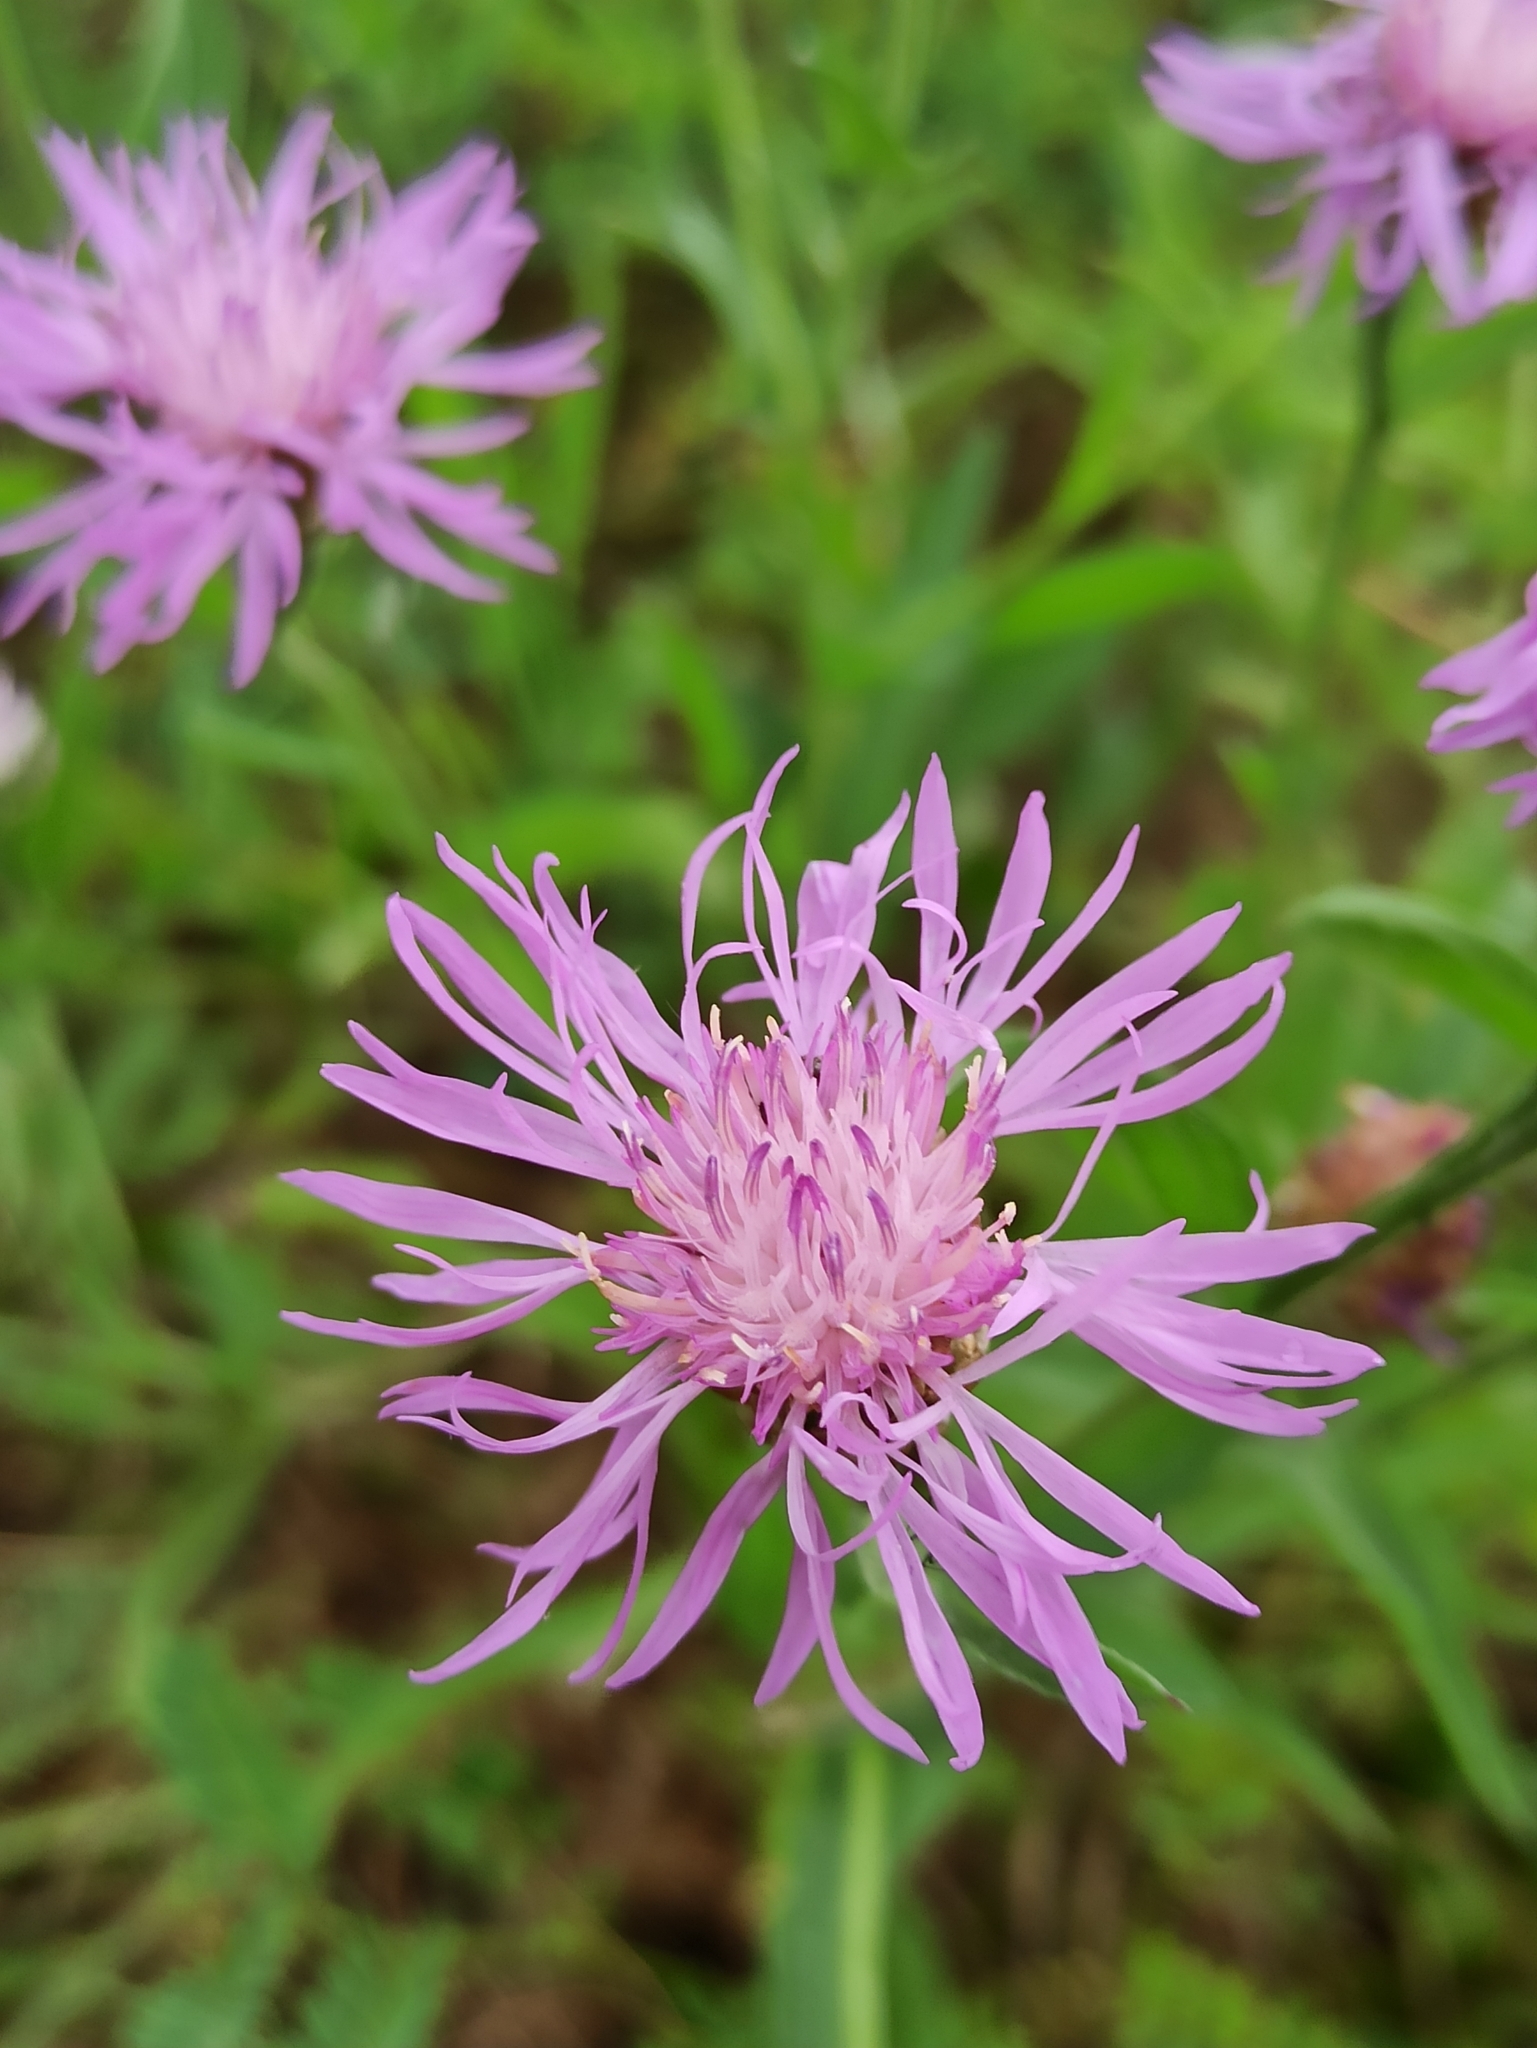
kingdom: Plantae
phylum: Tracheophyta
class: Magnoliopsida
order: Asterales
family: Asteraceae
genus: Centaurea
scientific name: Centaurea jacea
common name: Brown knapweed
